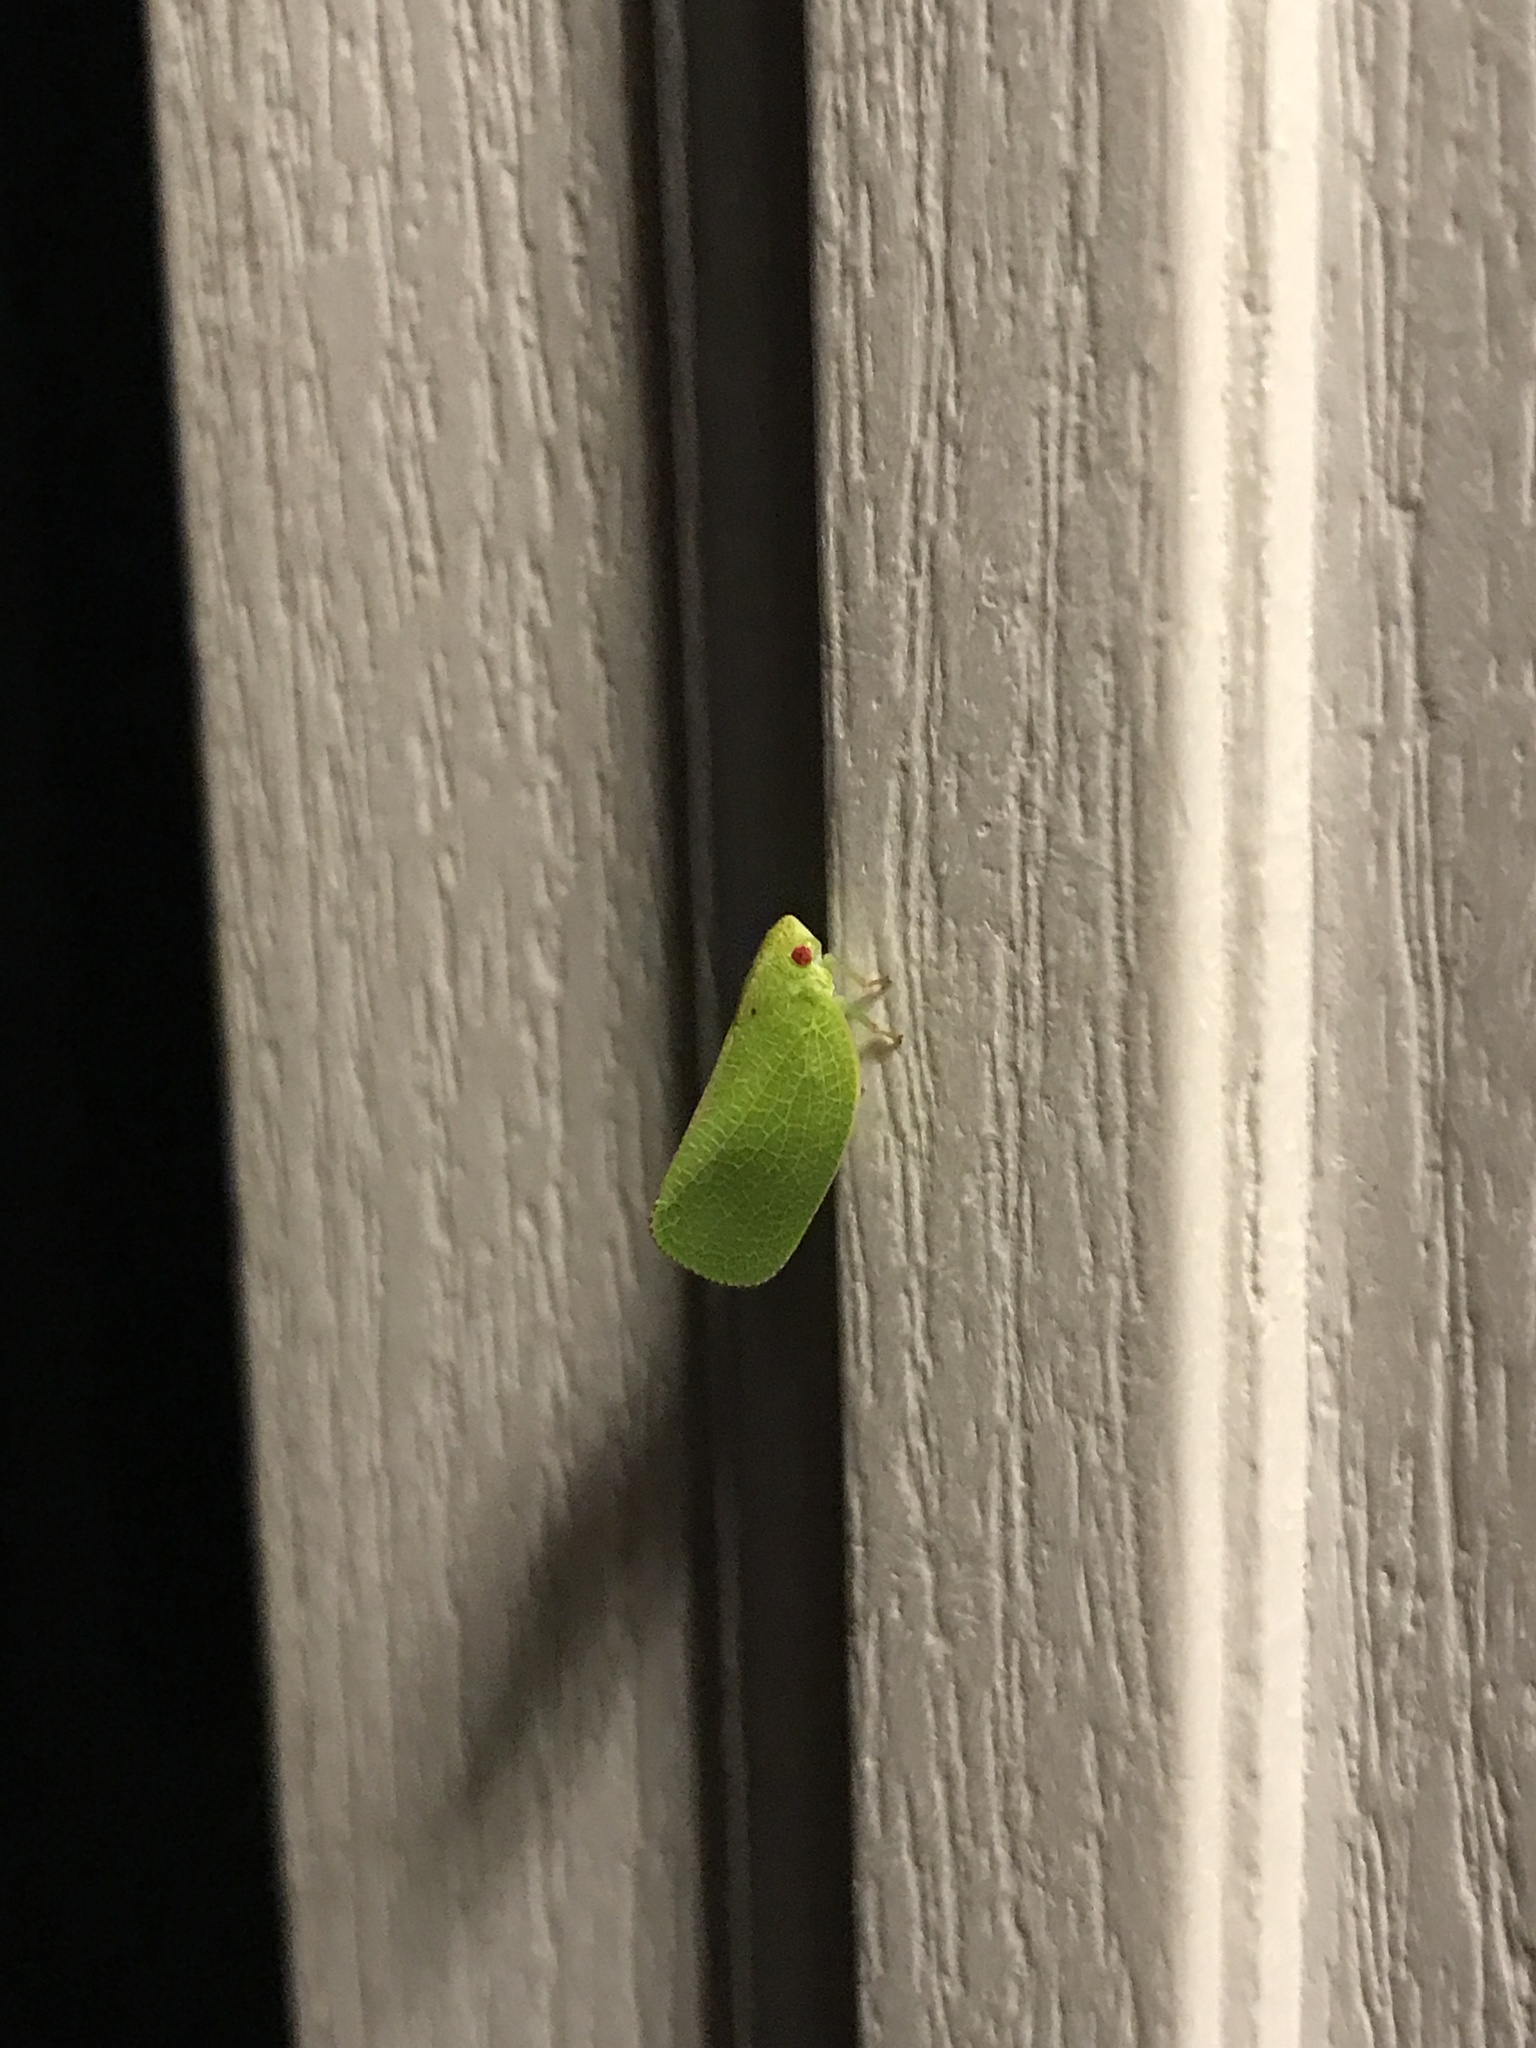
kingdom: Animalia
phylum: Arthropoda
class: Insecta
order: Hemiptera
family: Acanaloniidae
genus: Acanalonia
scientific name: Acanalonia conica
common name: Green cone-headed planthopper
